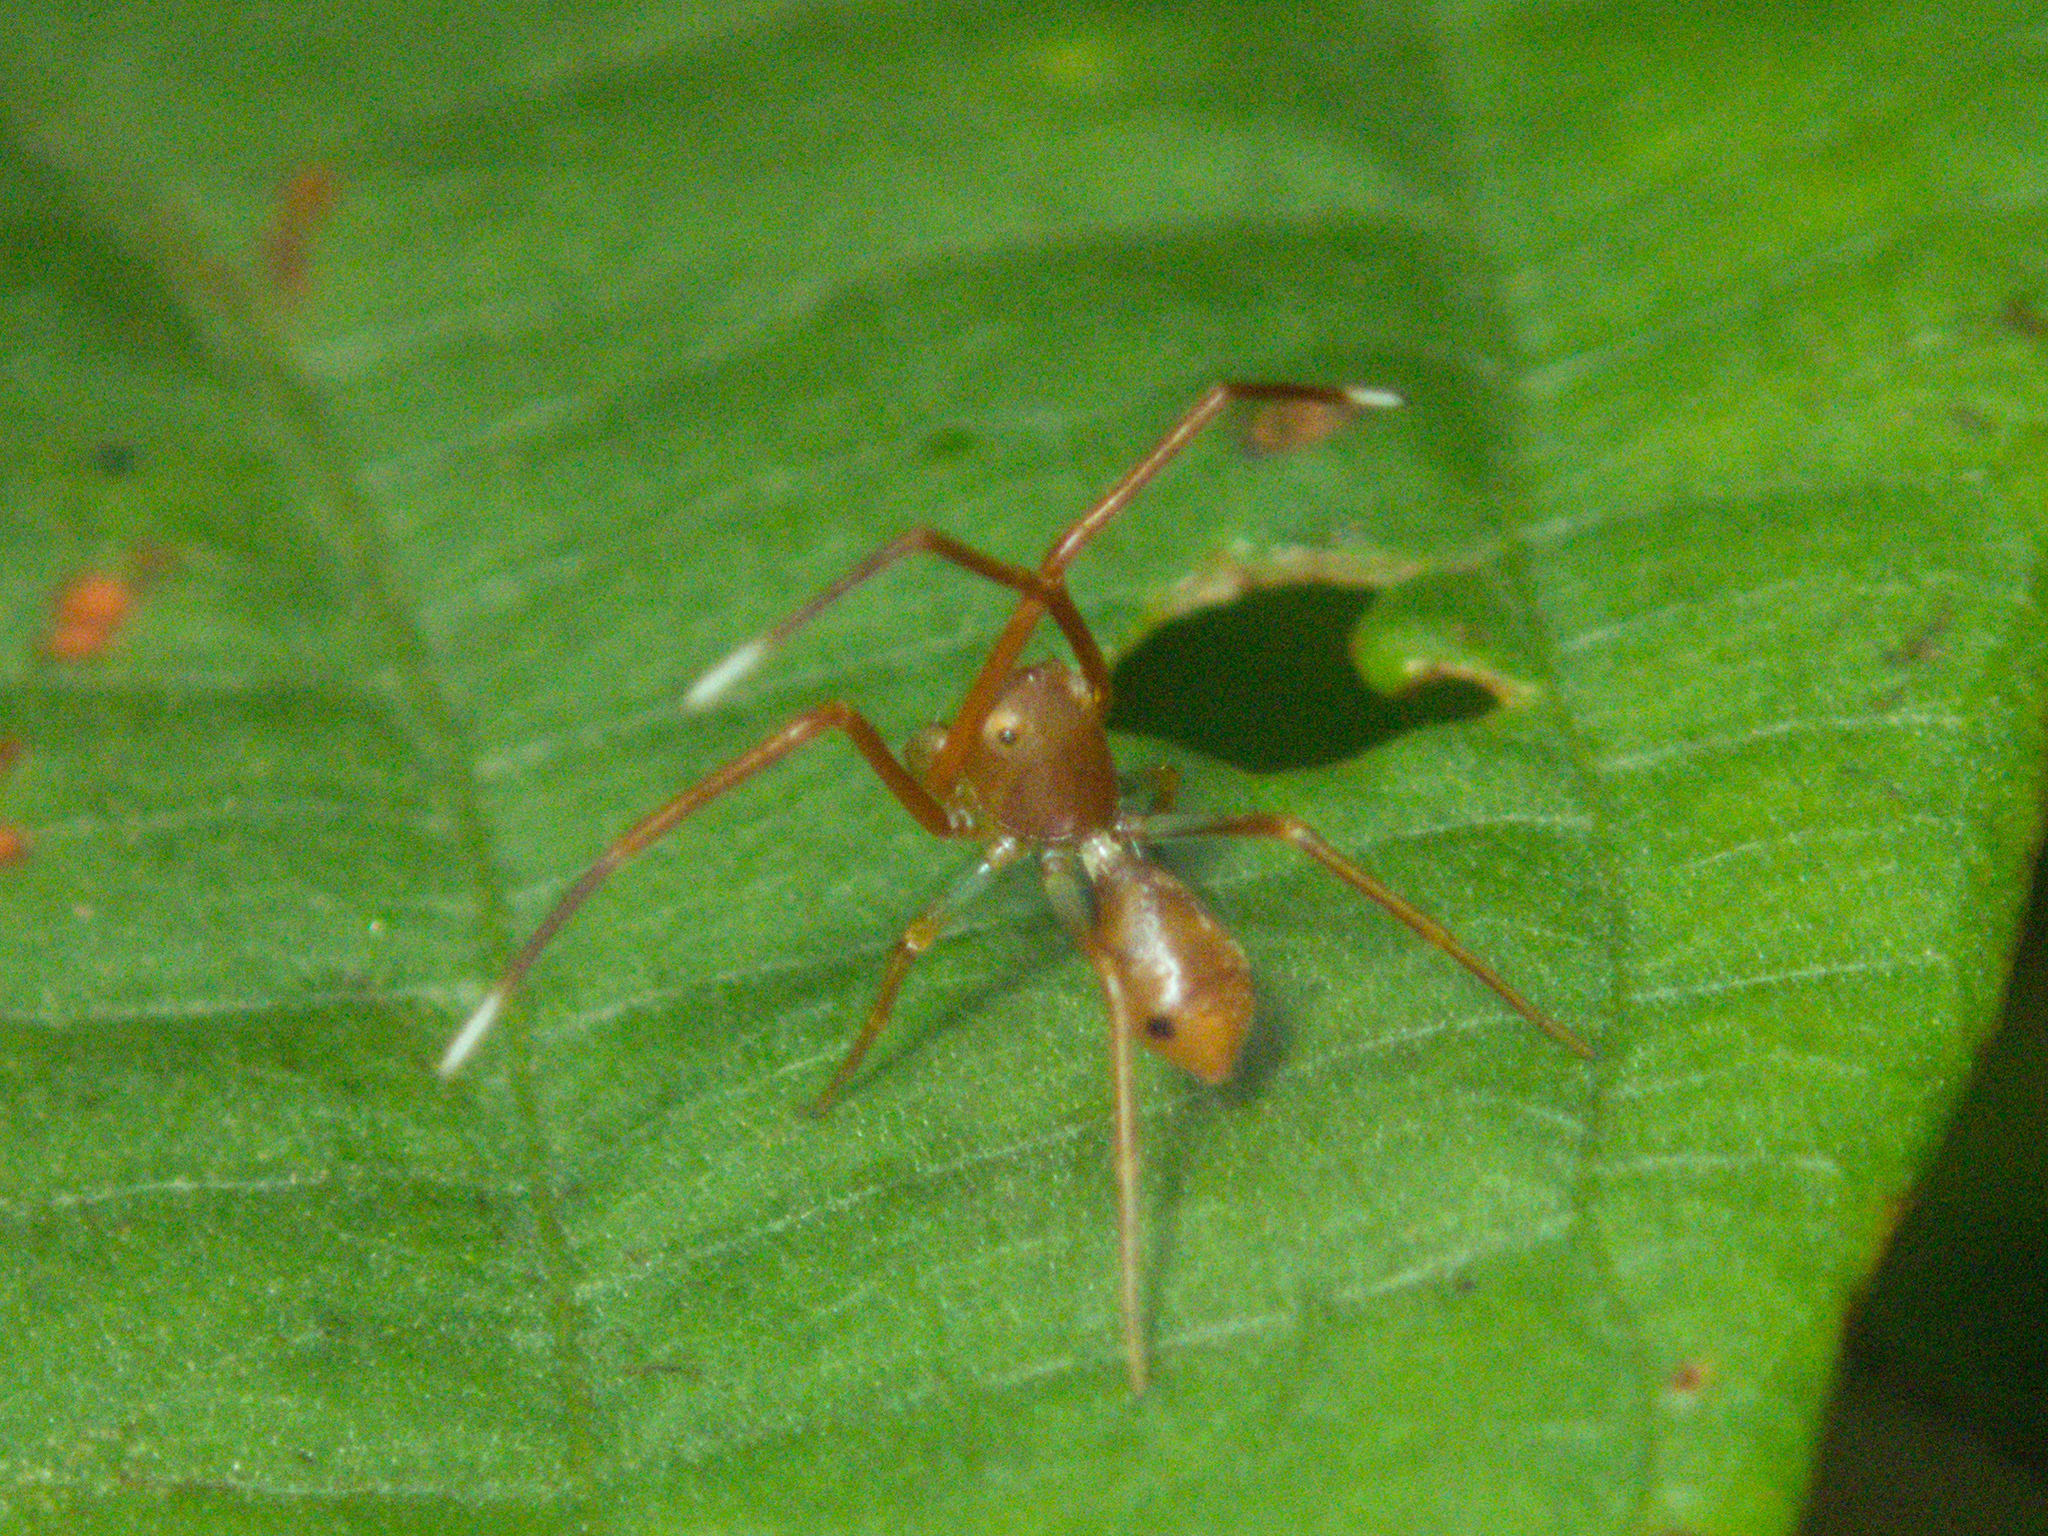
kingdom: Animalia
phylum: Arthropoda
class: Arachnida
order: Araneae
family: Thomisidae
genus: Amyciaea
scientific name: Amyciaea forticeps
